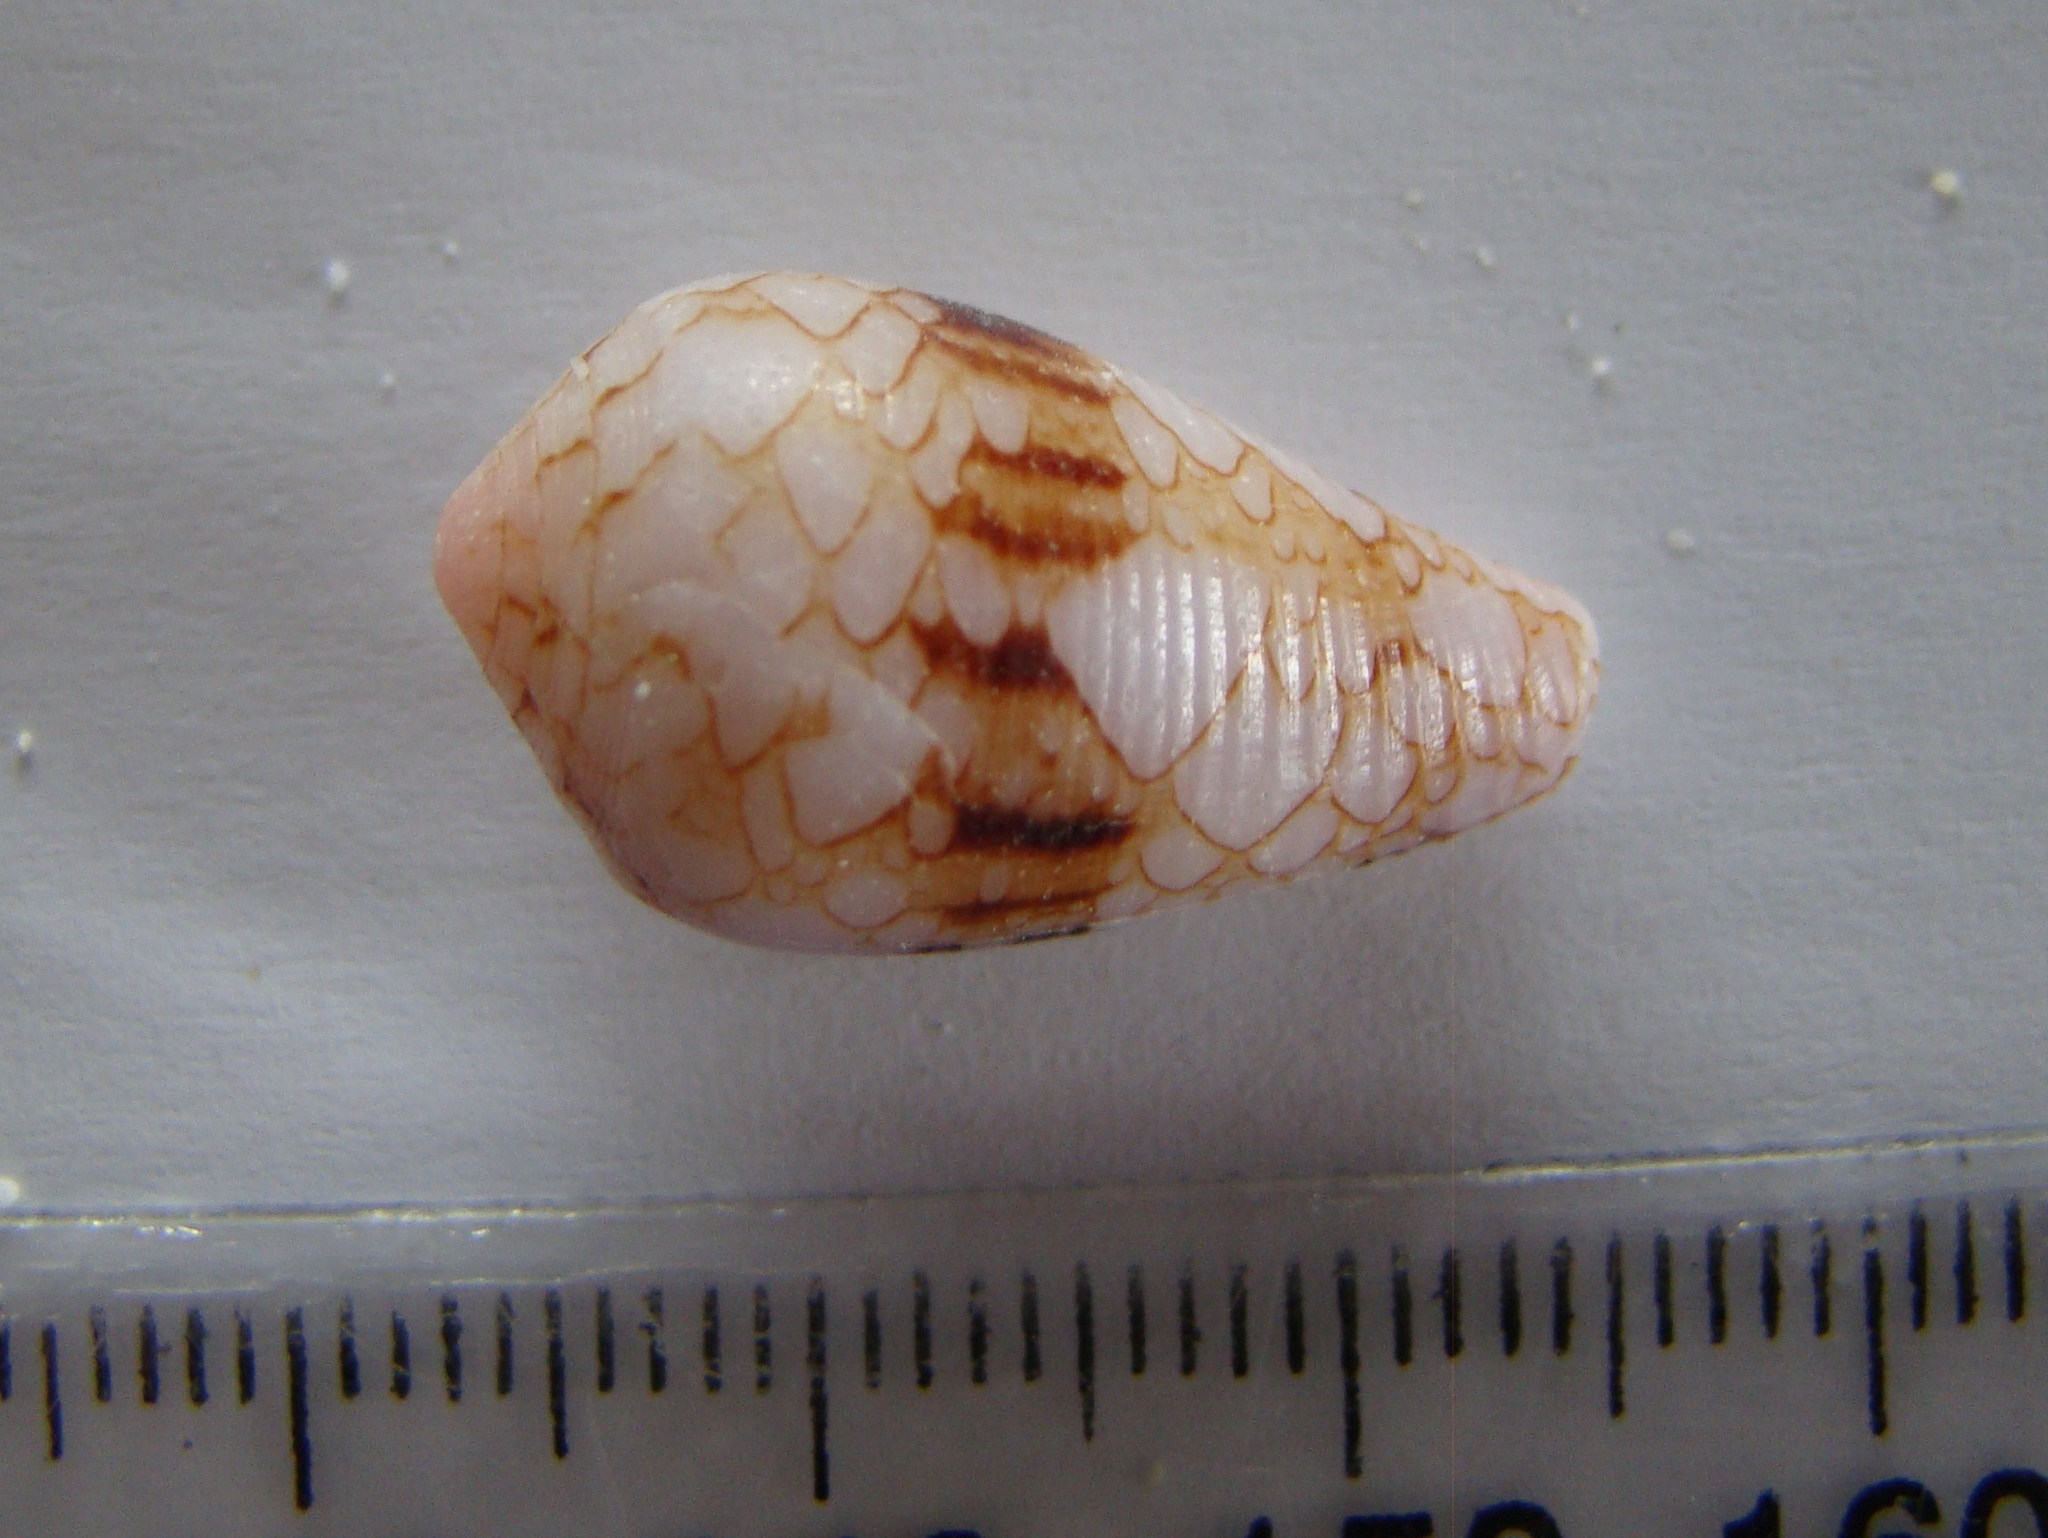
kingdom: Animalia
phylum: Mollusca
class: Gastropoda
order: Neogastropoda
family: Conidae
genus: Conus
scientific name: Conus retifer
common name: Netted cone
